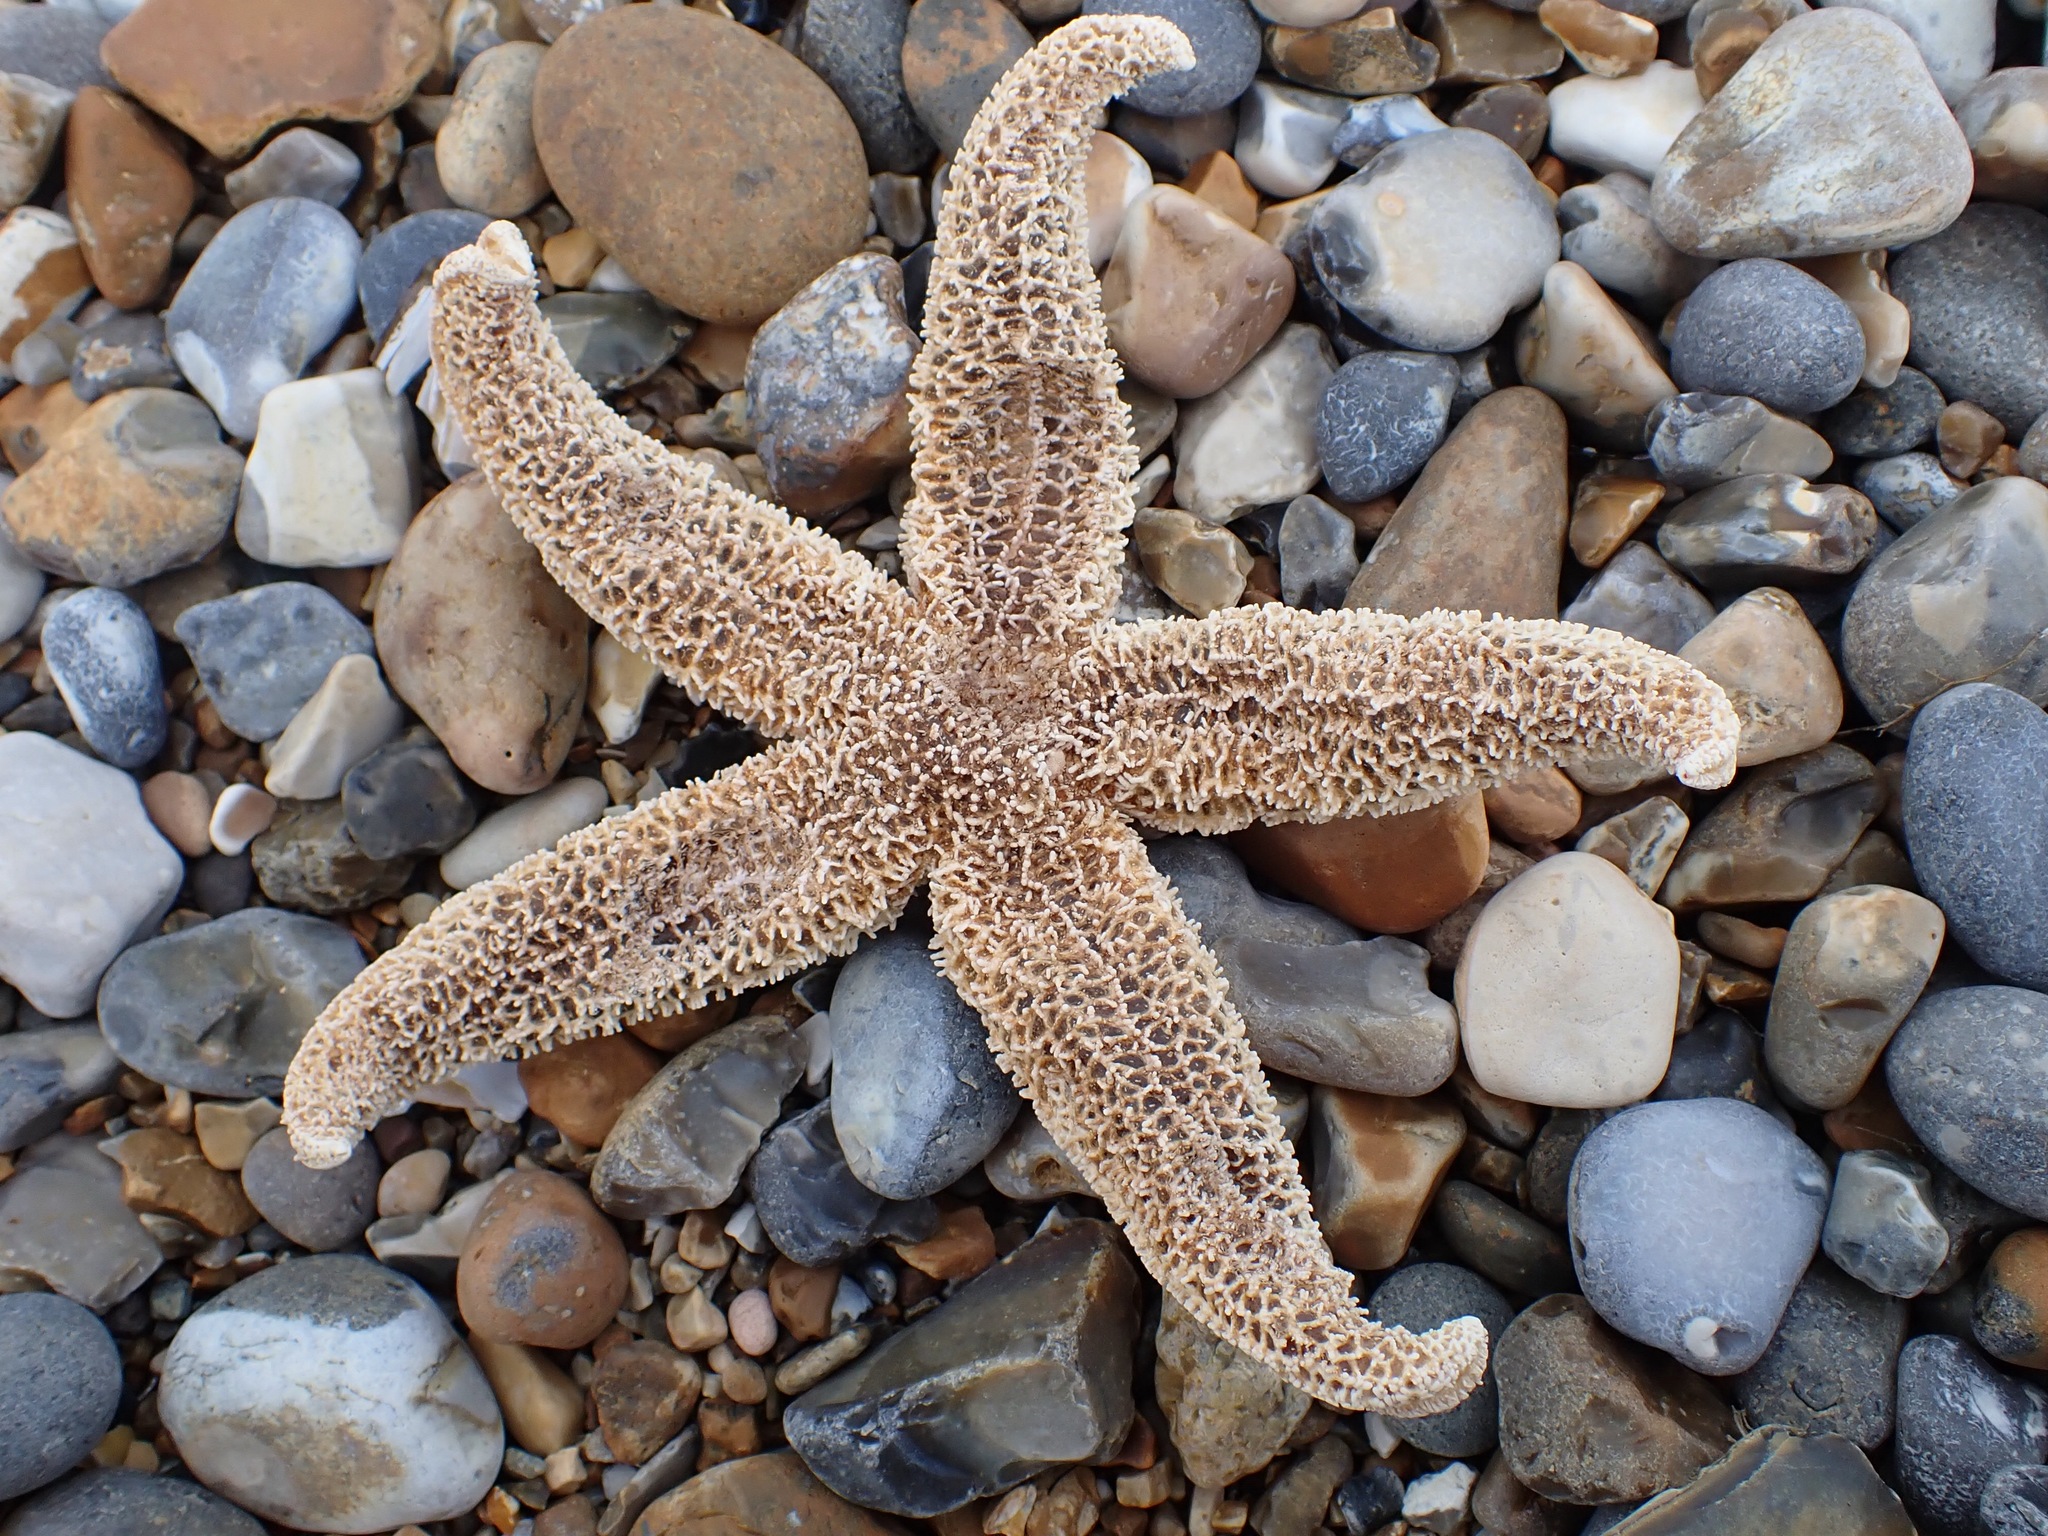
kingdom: Animalia
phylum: Echinodermata
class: Asteroidea
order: Forcipulatida
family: Asteriidae
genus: Asterias
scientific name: Asterias rubens
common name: Common starfish
